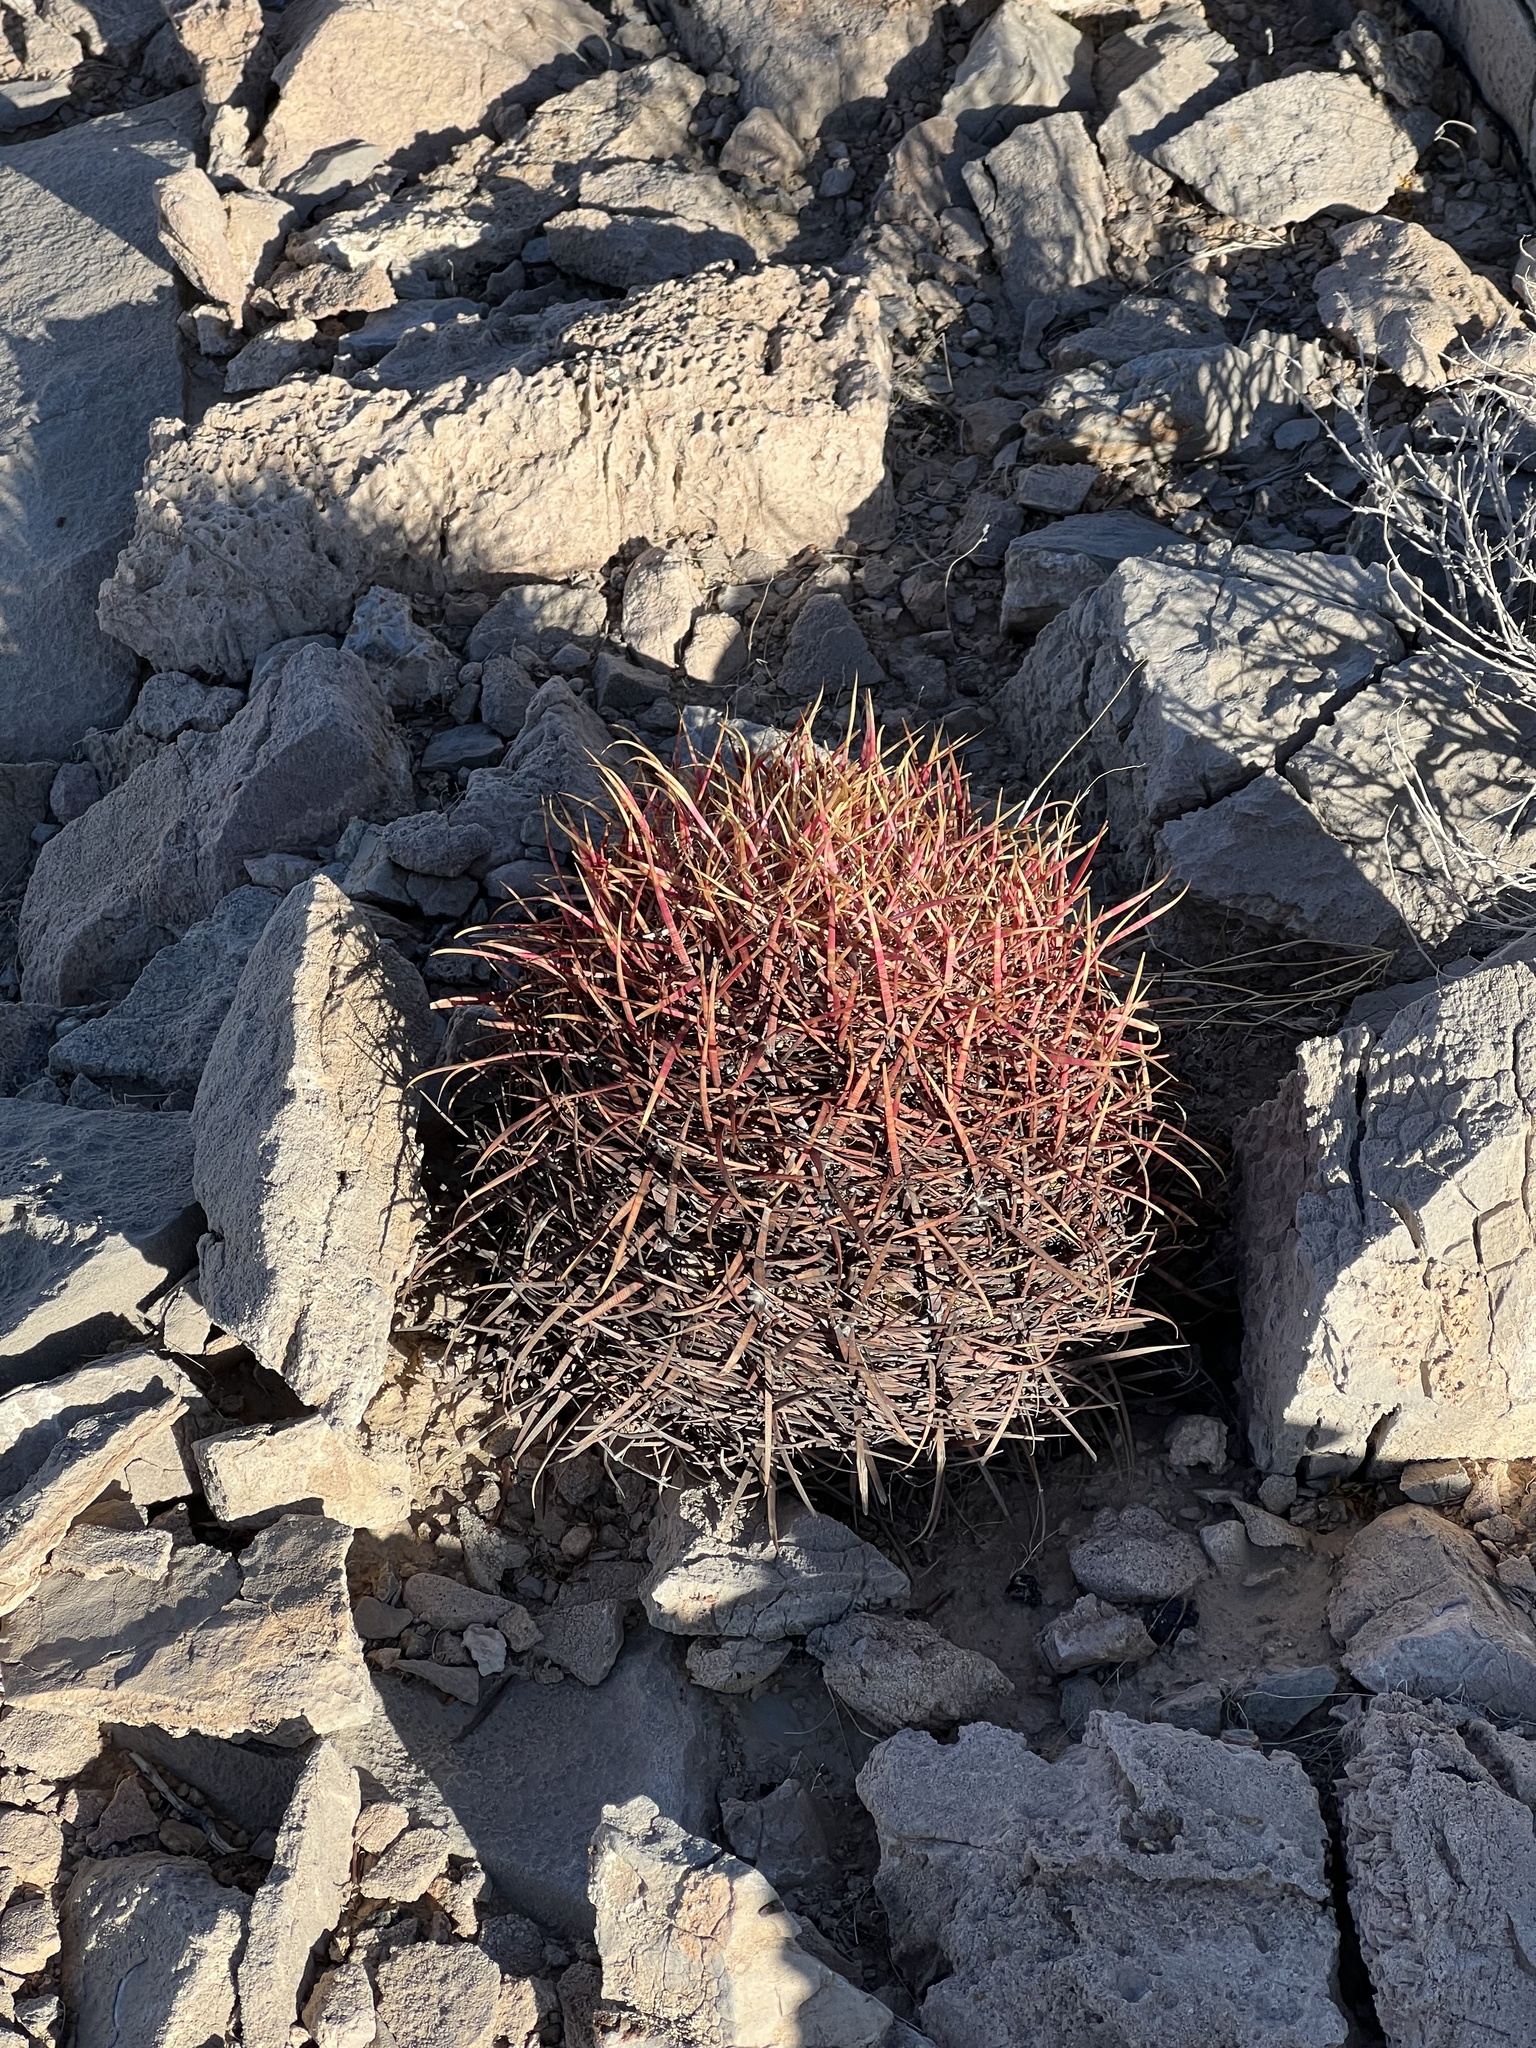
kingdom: Plantae
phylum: Tracheophyta
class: Magnoliopsida
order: Caryophyllales
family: Cactaceae
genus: Ferocactus
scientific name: Ferocactus cylindraceus
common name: California barrel cactus
